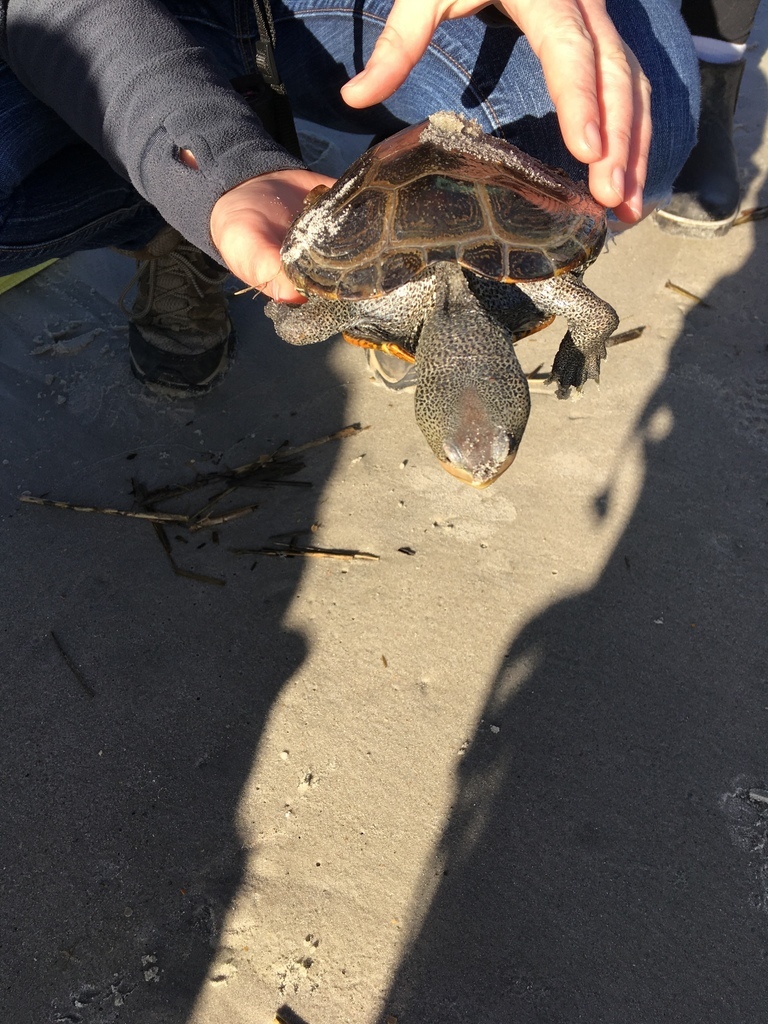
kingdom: Animalia
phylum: Chordata
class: Testudines
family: Emydidae
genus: Malaclemys
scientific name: Malaclemys terrapin
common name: Diamondback terrapin
